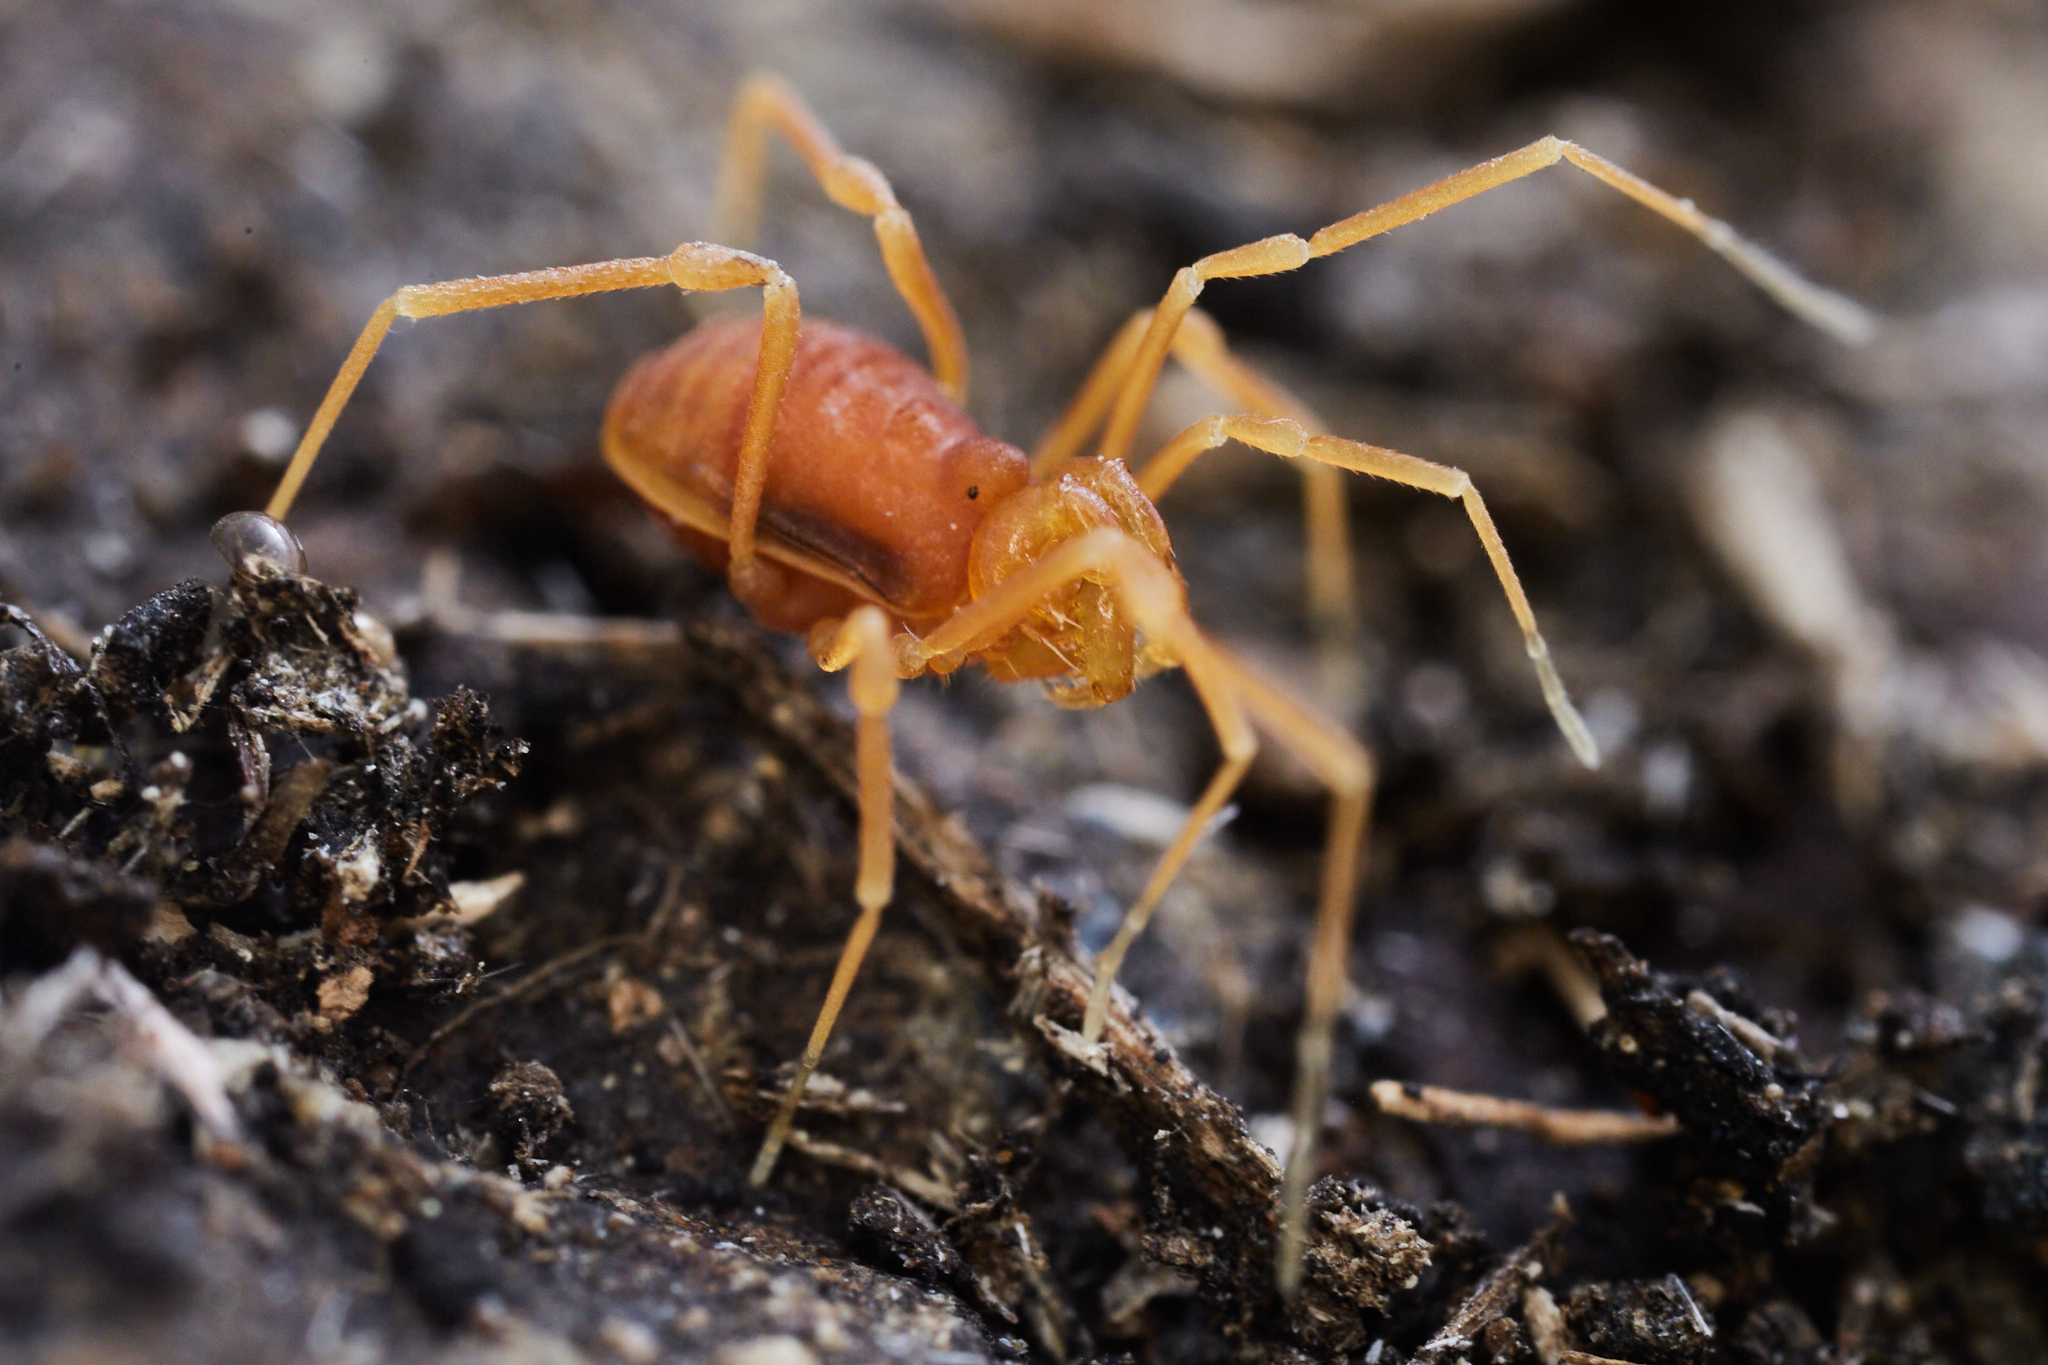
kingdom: Animalia
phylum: Arthropoda
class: Arachnida
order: Opiliones
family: Phalangodidae
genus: Megacina
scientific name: Megacina cockerelli
